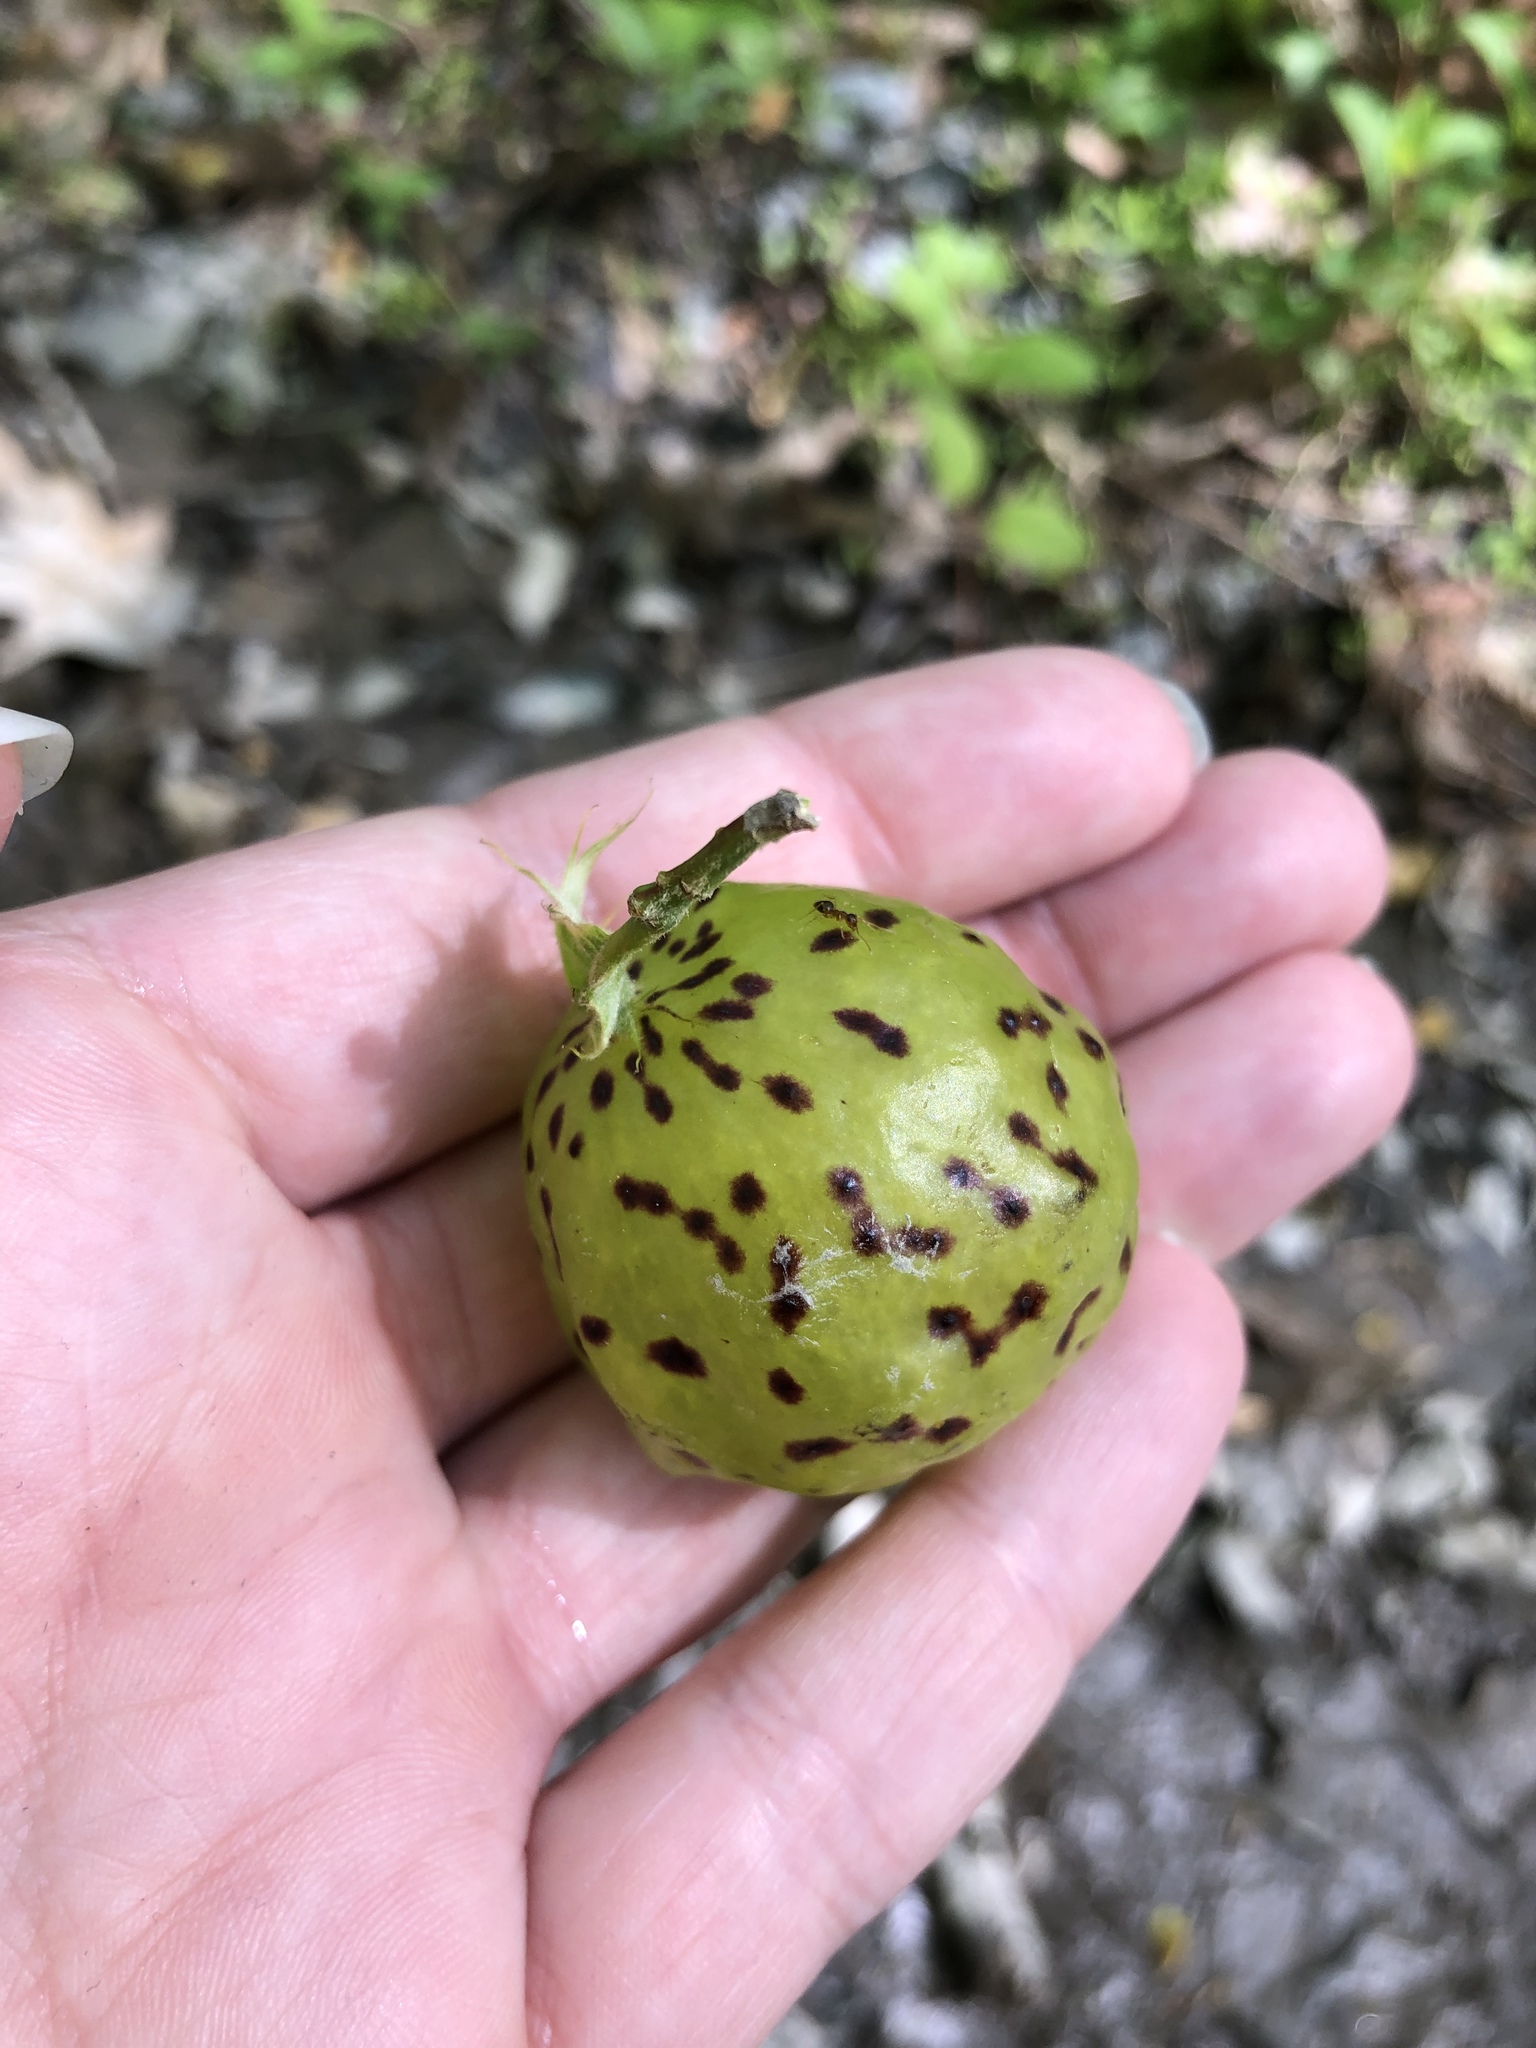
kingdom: Animalia
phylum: Arthropoda
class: Insecta
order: Hymenoptera
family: Cynipidae
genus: Amphibolips
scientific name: Amphibolips
